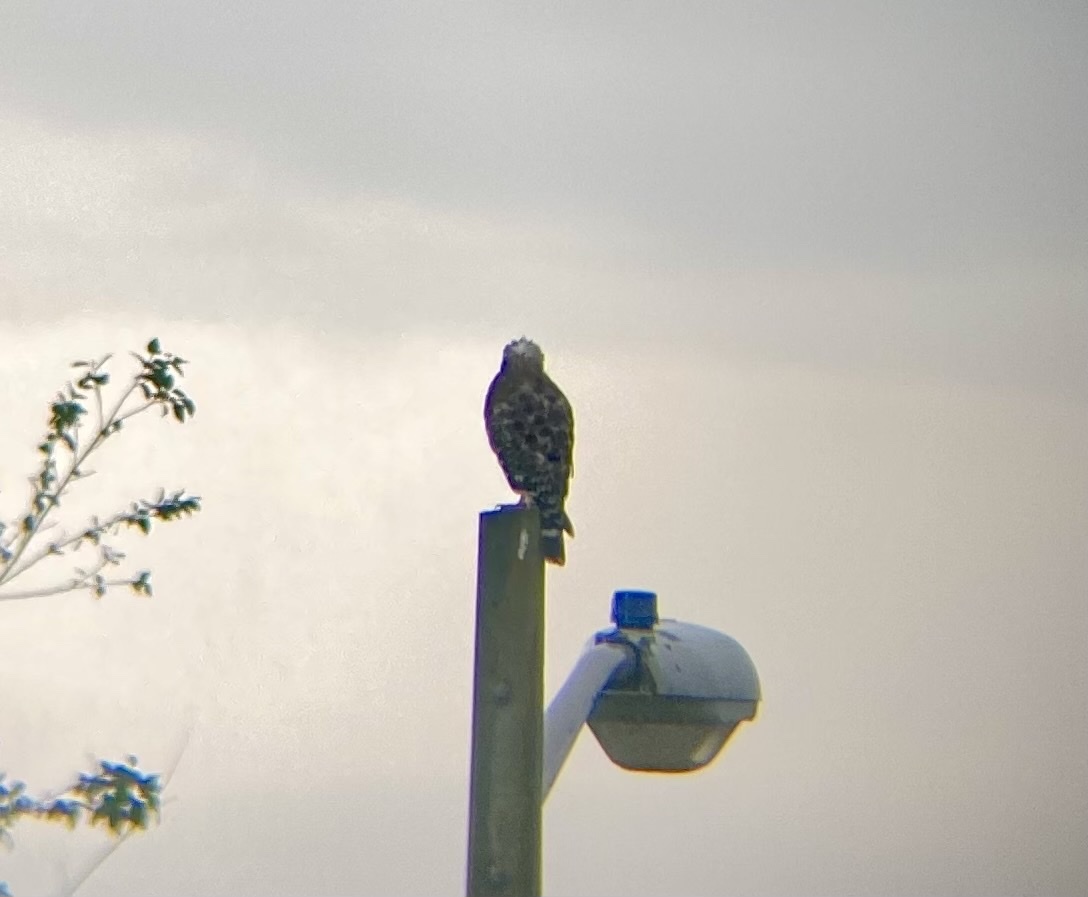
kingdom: Animalia
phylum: Chordata
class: Aves
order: Accipitriformes
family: Accipitridae
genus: Buteo
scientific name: Buteo lineatus
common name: Red-shouldered hawk
